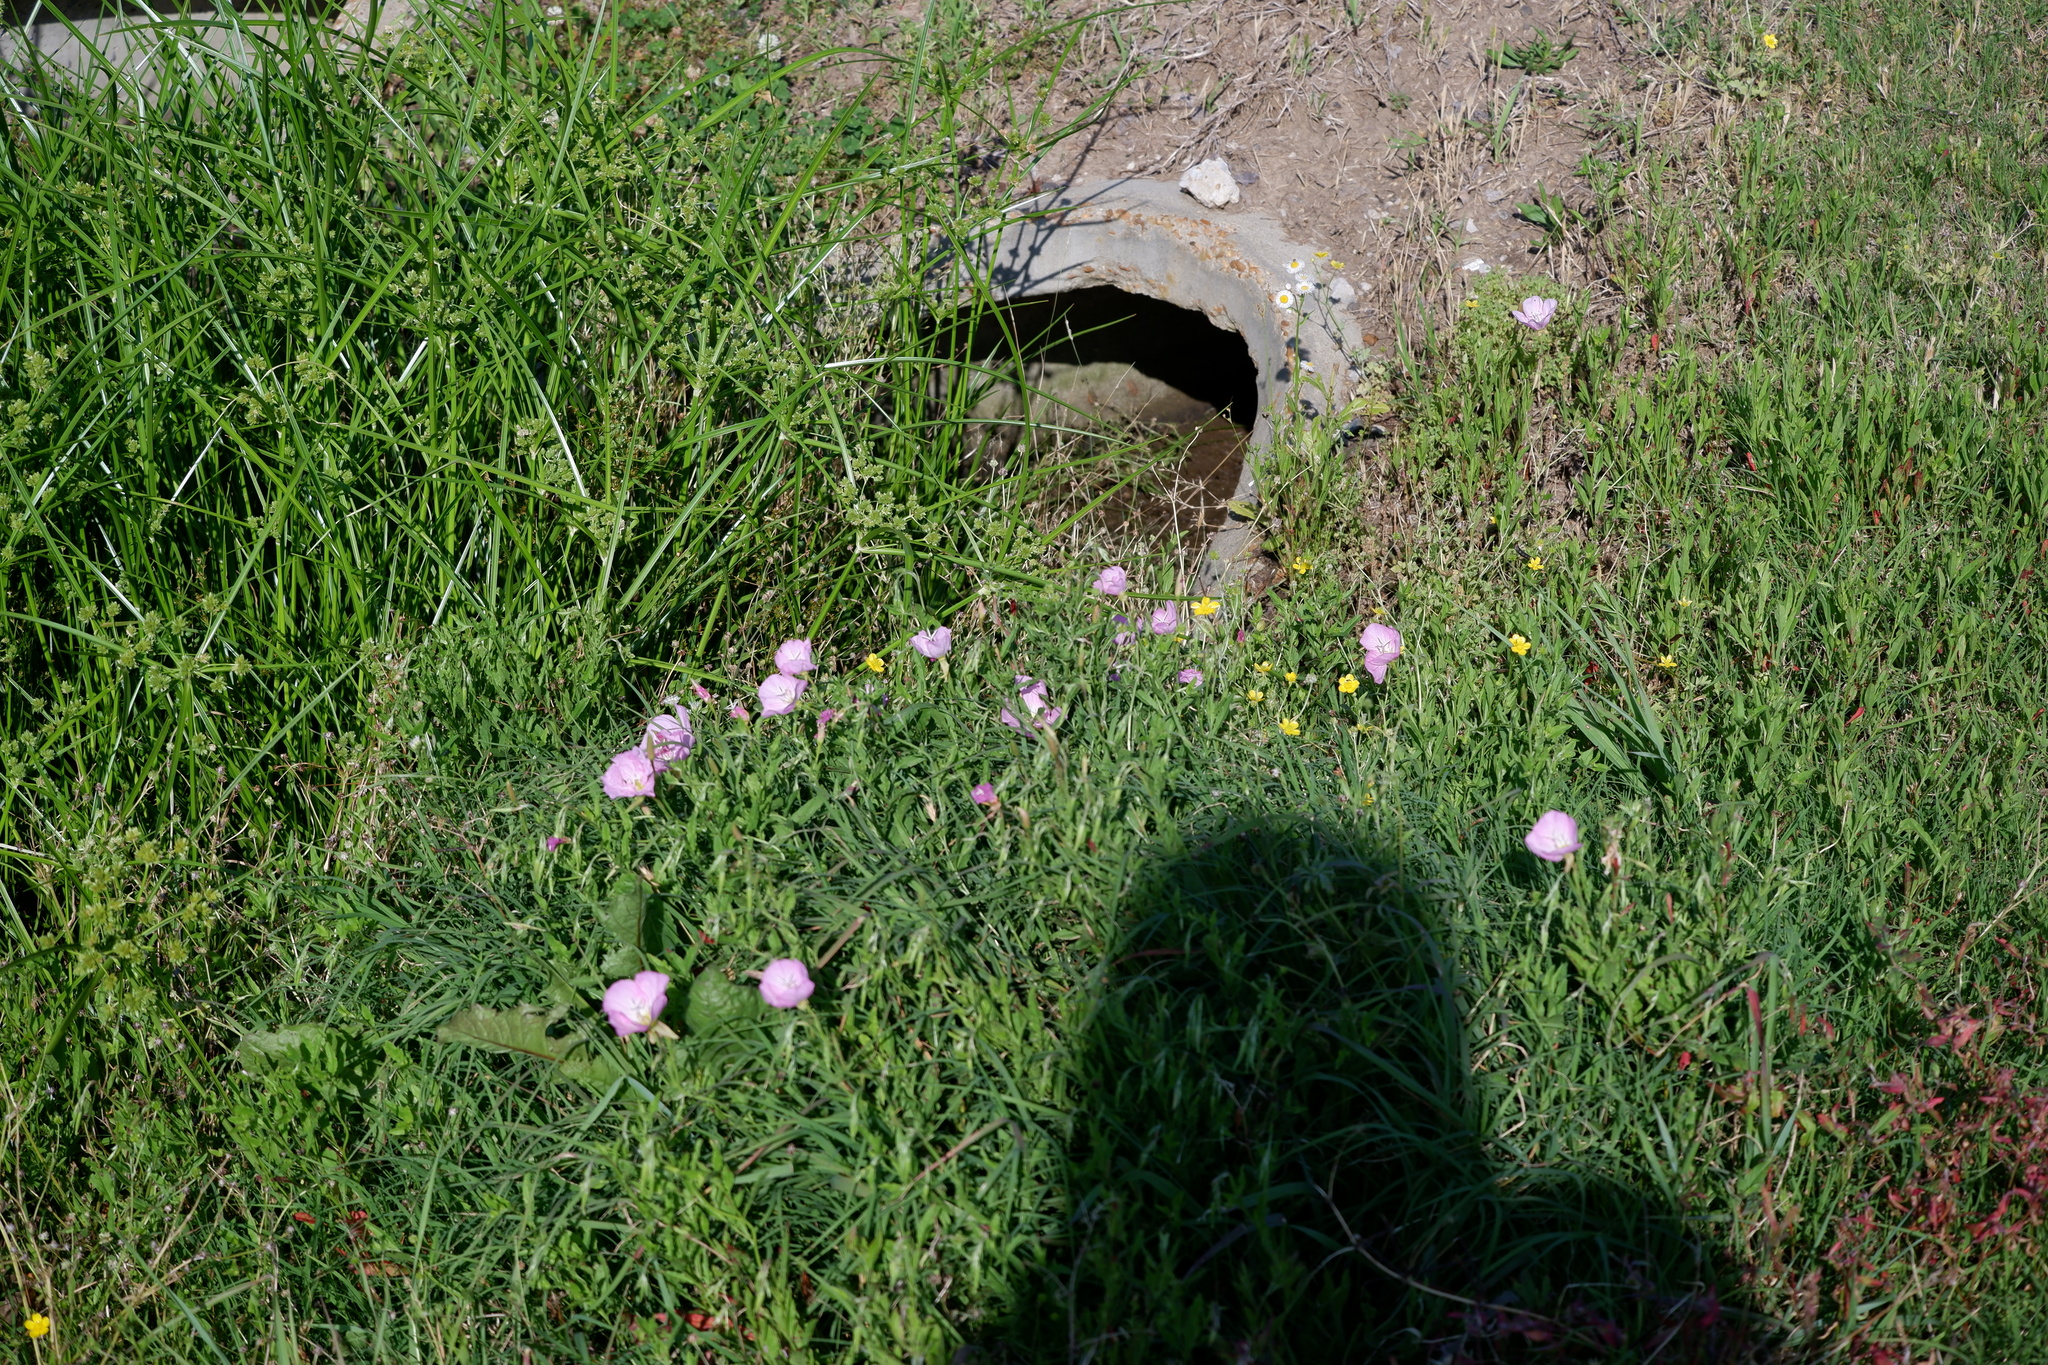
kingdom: Plantae
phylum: Tracheophyta
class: Magnoliopsida
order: Myrtales
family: Onagraceae
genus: Oenothera
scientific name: Oenothera speciosa
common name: White evening-primrose
